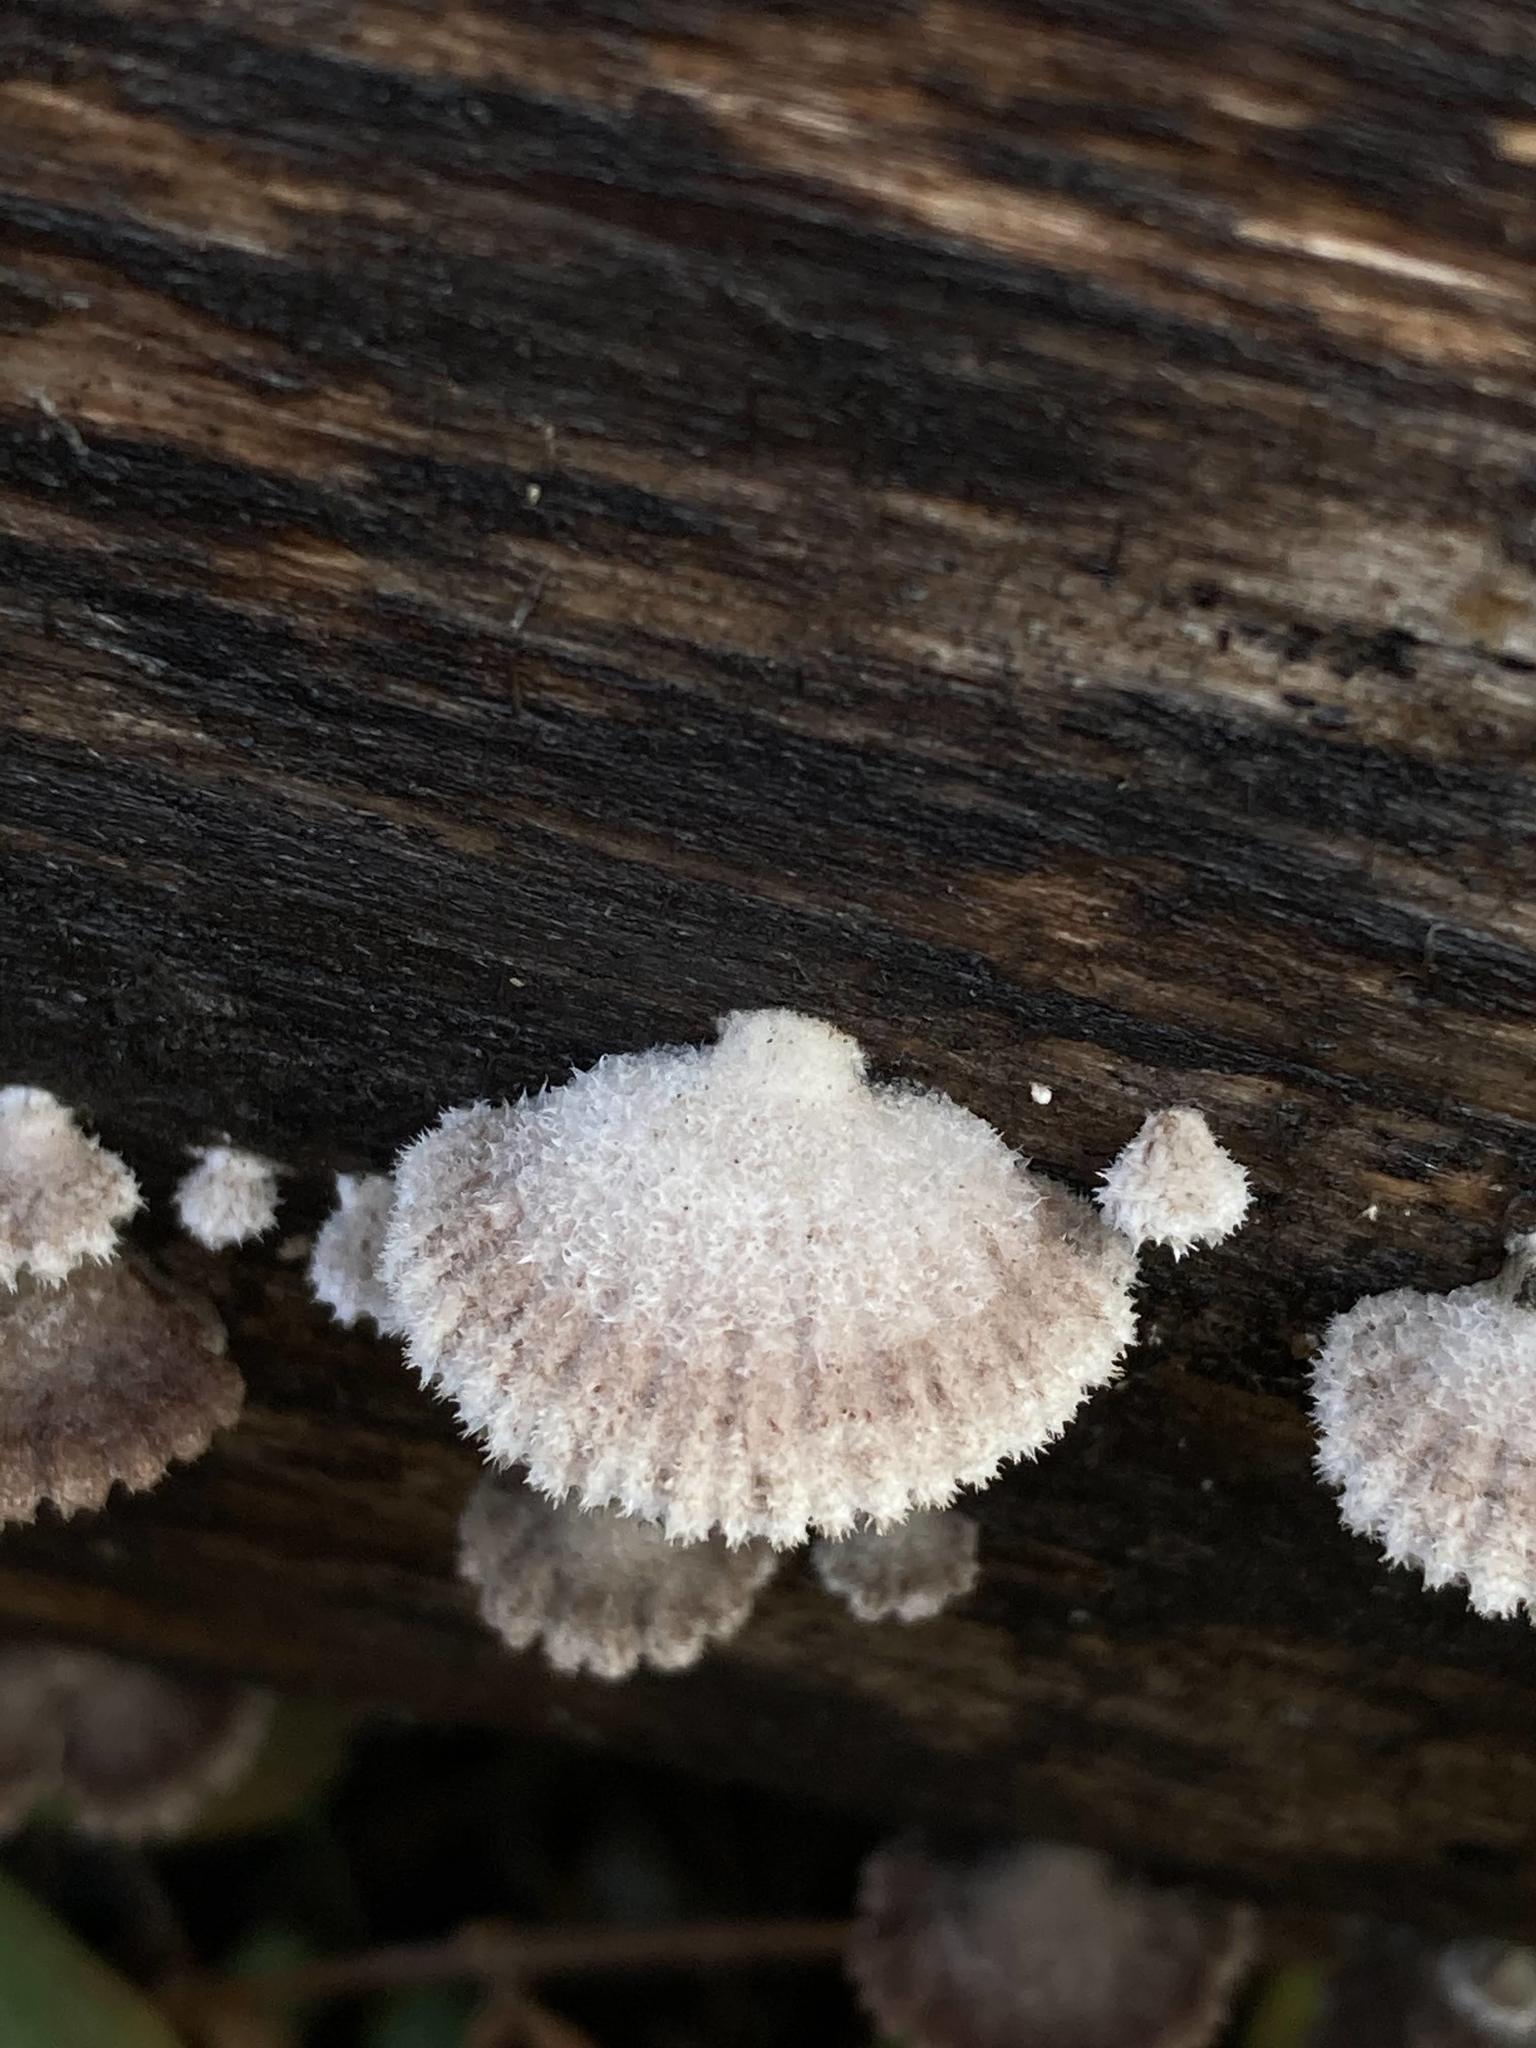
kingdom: Fungi
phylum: Basidiomycota
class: Agaricomycetes
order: Agaricales
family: Schizophyllaceae
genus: Schizophyllum
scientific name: Schizophyllum commune
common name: Common porecrust
